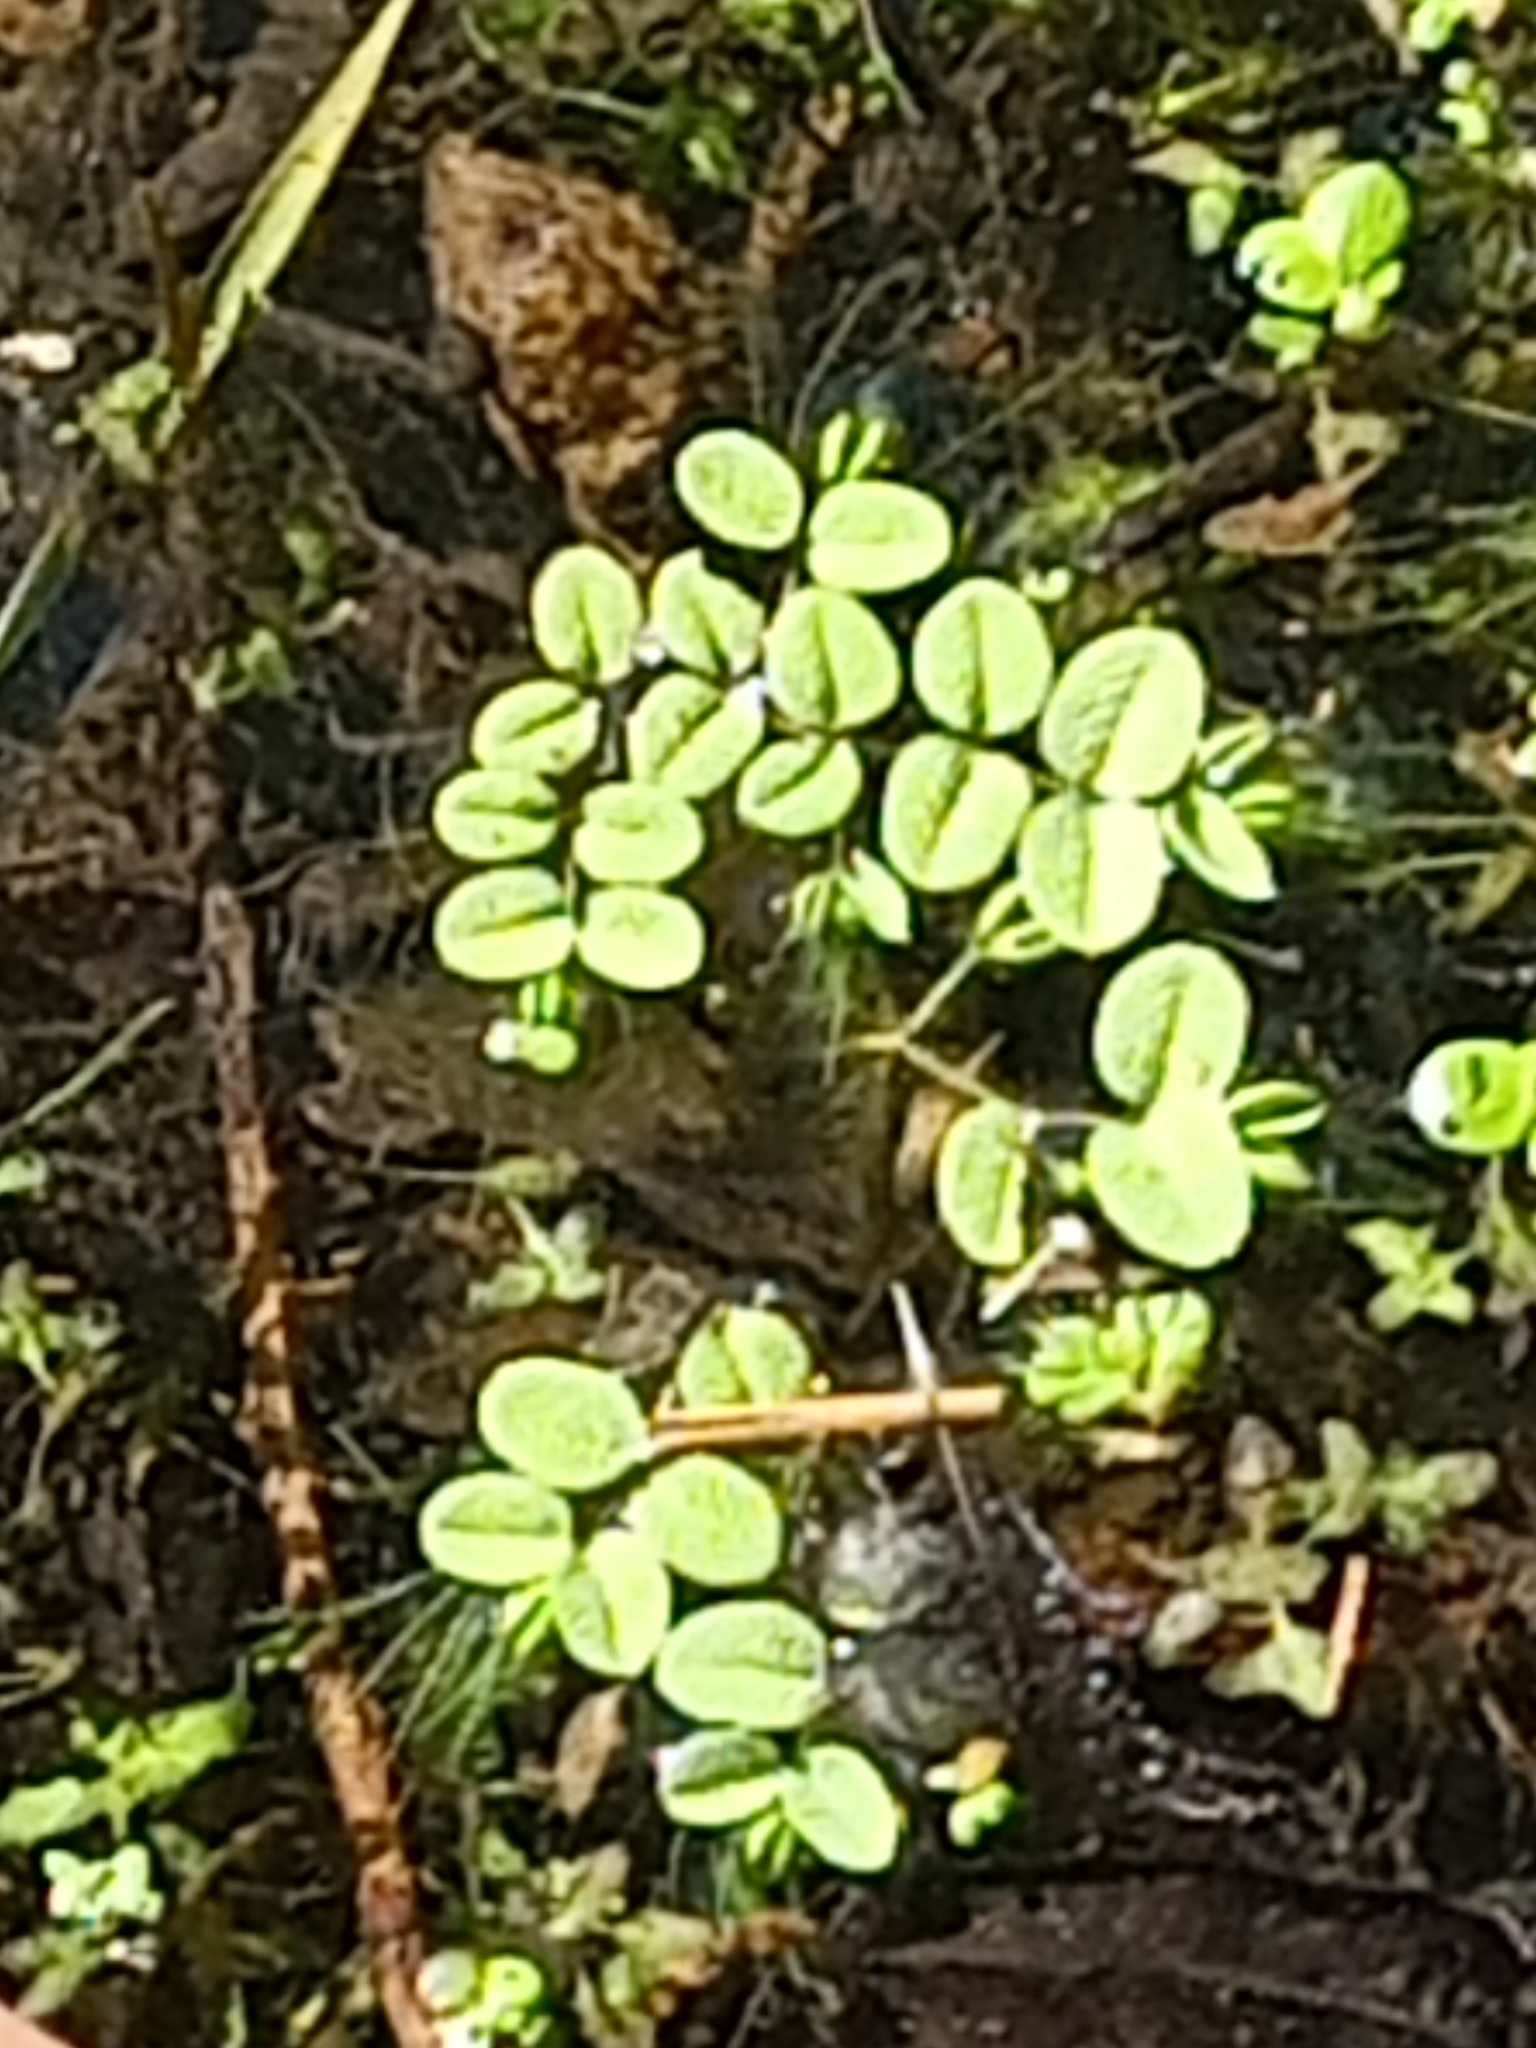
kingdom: Plantae
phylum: Tracheophyta
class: Polypodiopsida
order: Salviniales
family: Salviniaceae
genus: Salvinia
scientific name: Salvinia natans
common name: Floating fern
